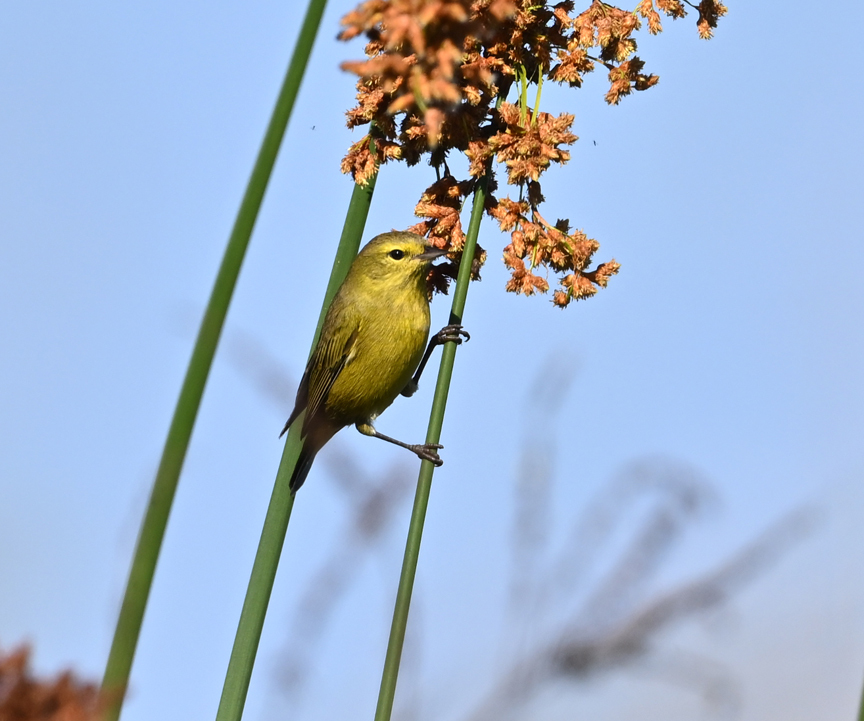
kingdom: Animalia
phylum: Chordata
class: Aves
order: Passeriformes
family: Parulidae
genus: Leiothlypis
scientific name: Leiothlypis celata
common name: Orange-crowned warbler
